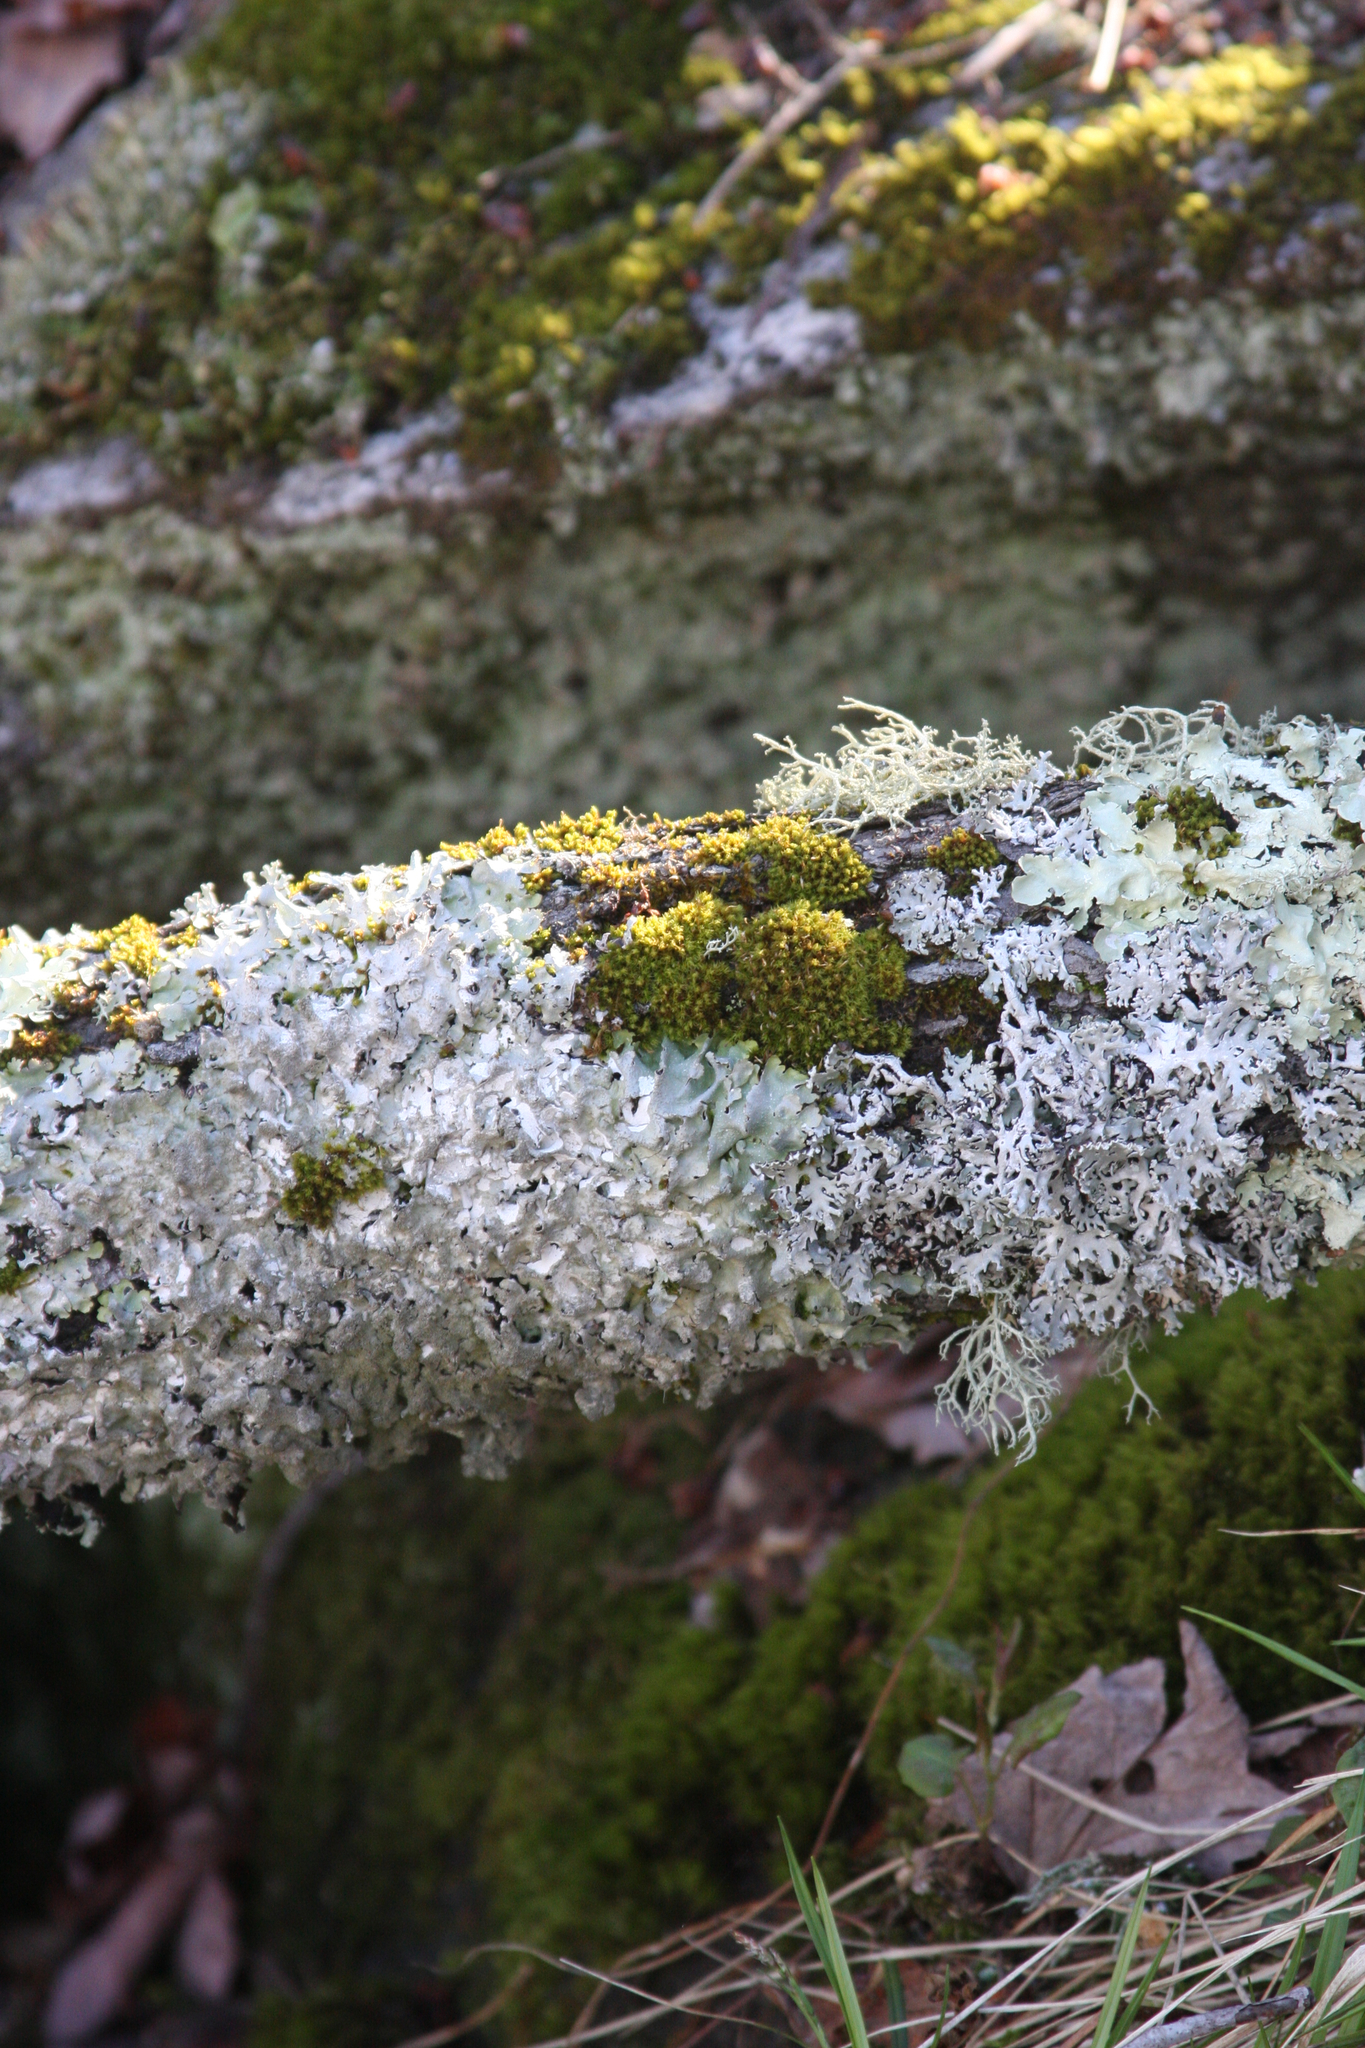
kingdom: Plantae
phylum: Bryophyta
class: Bryopsida
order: Orthotrichales
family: Orthotrichaceae
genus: Ulota
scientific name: Ulota crispa
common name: Crisped pincushion moss
